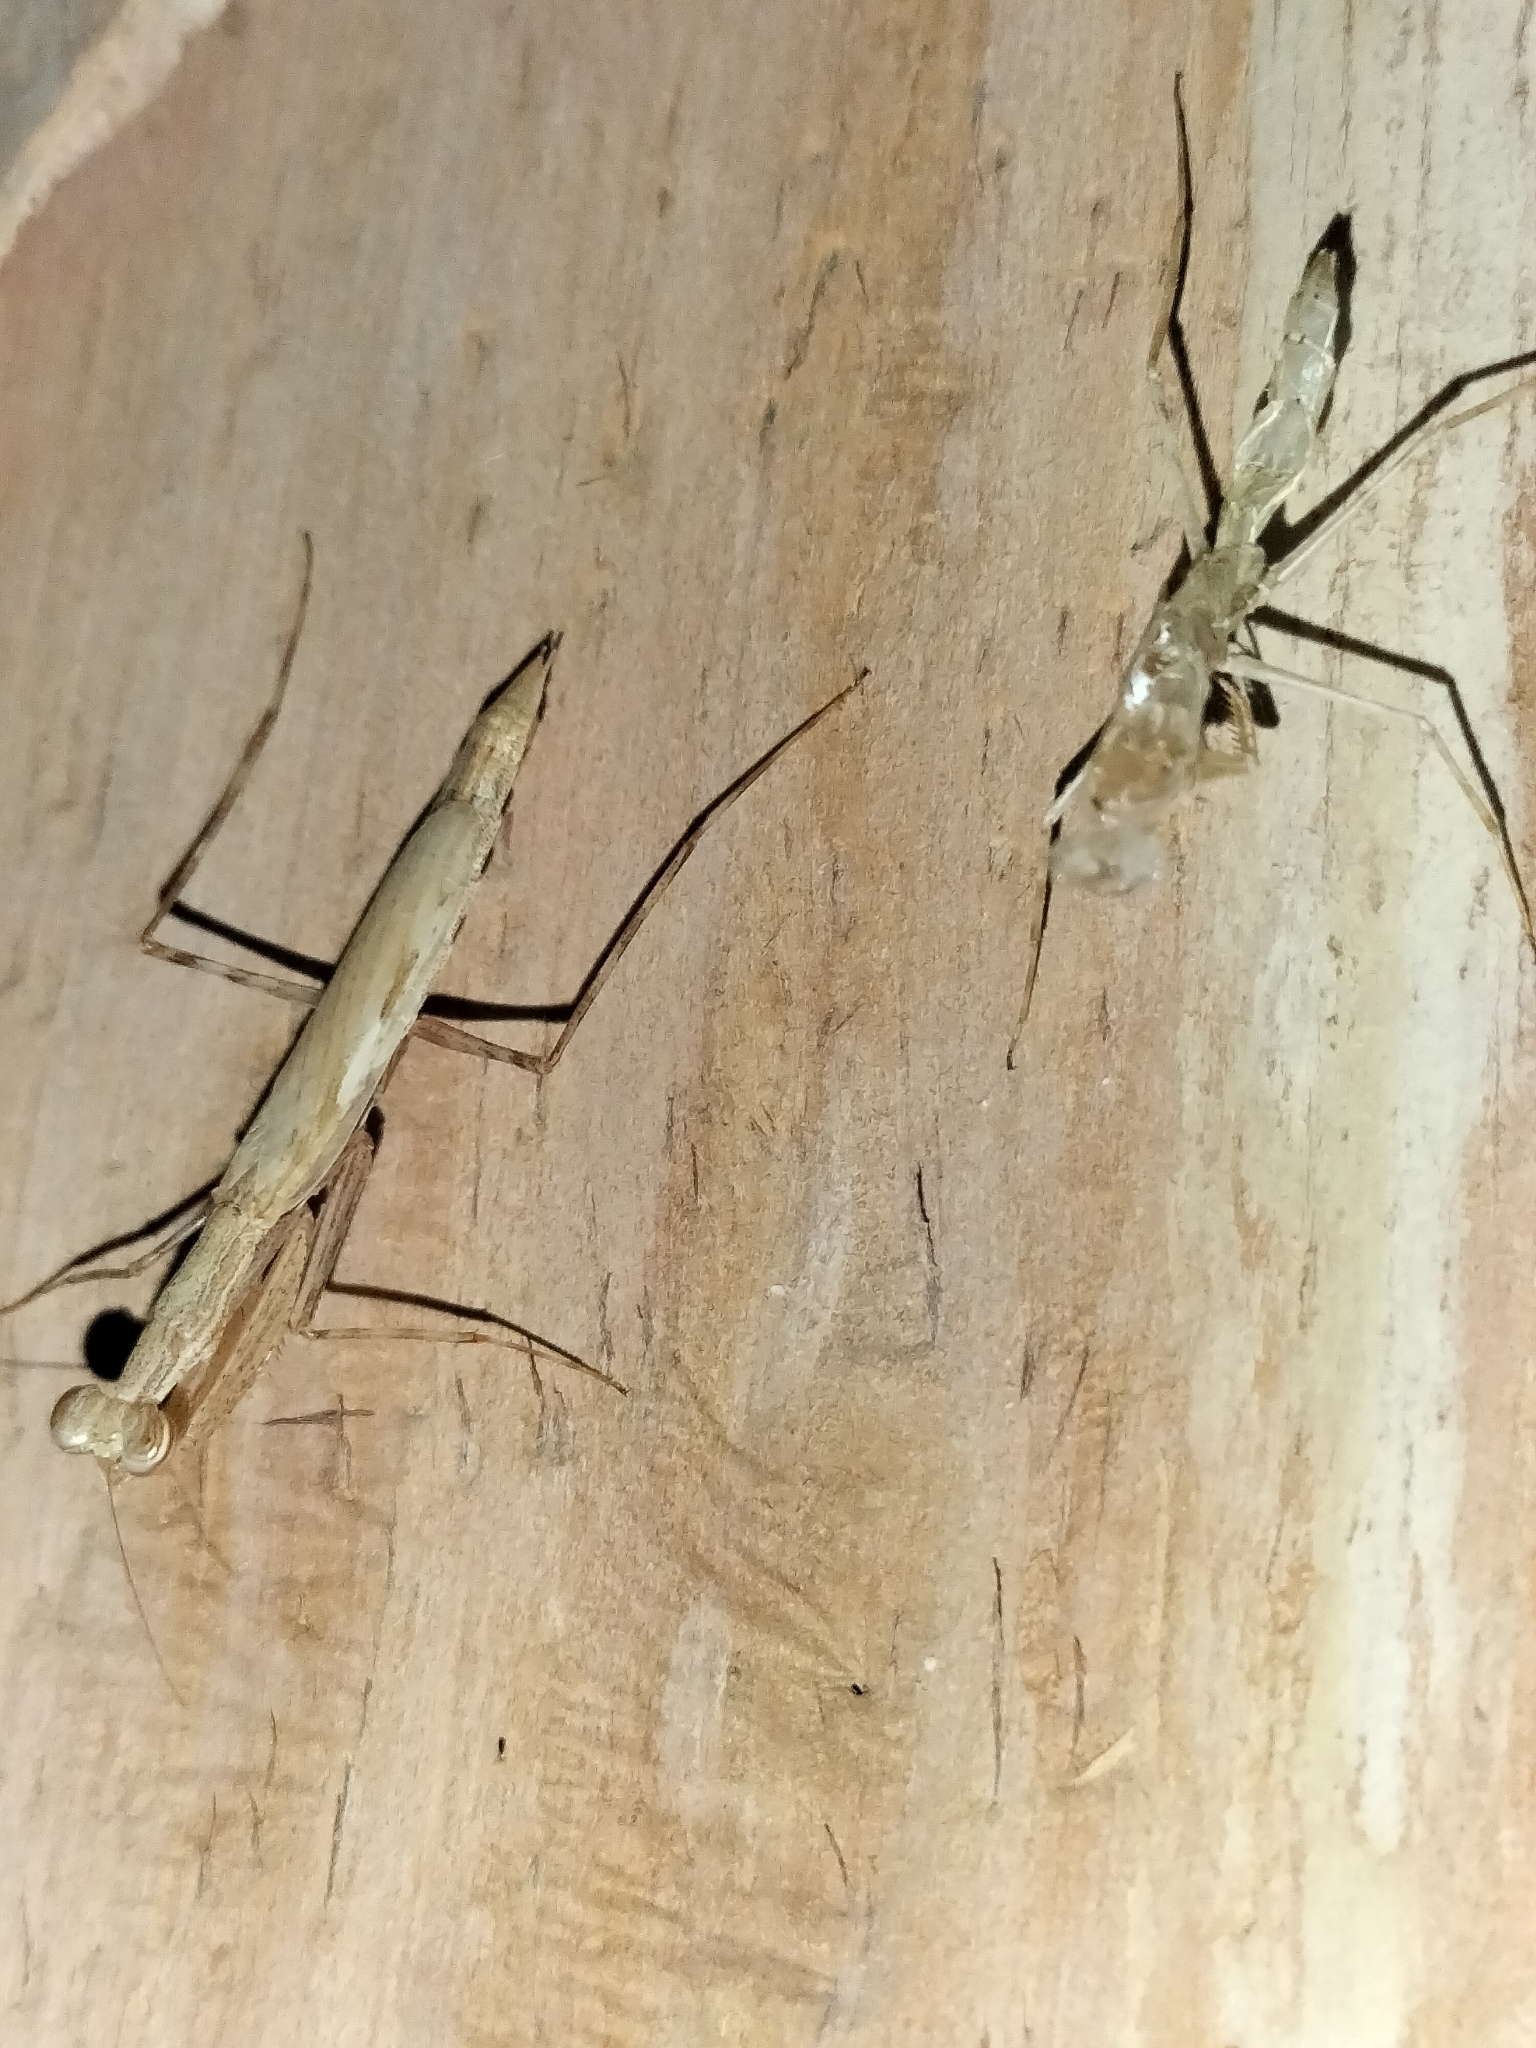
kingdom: Animalia
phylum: Arthropoda
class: Insecta
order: Mantodea
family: Nanomantidae
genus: Ima
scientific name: Ima fusca
